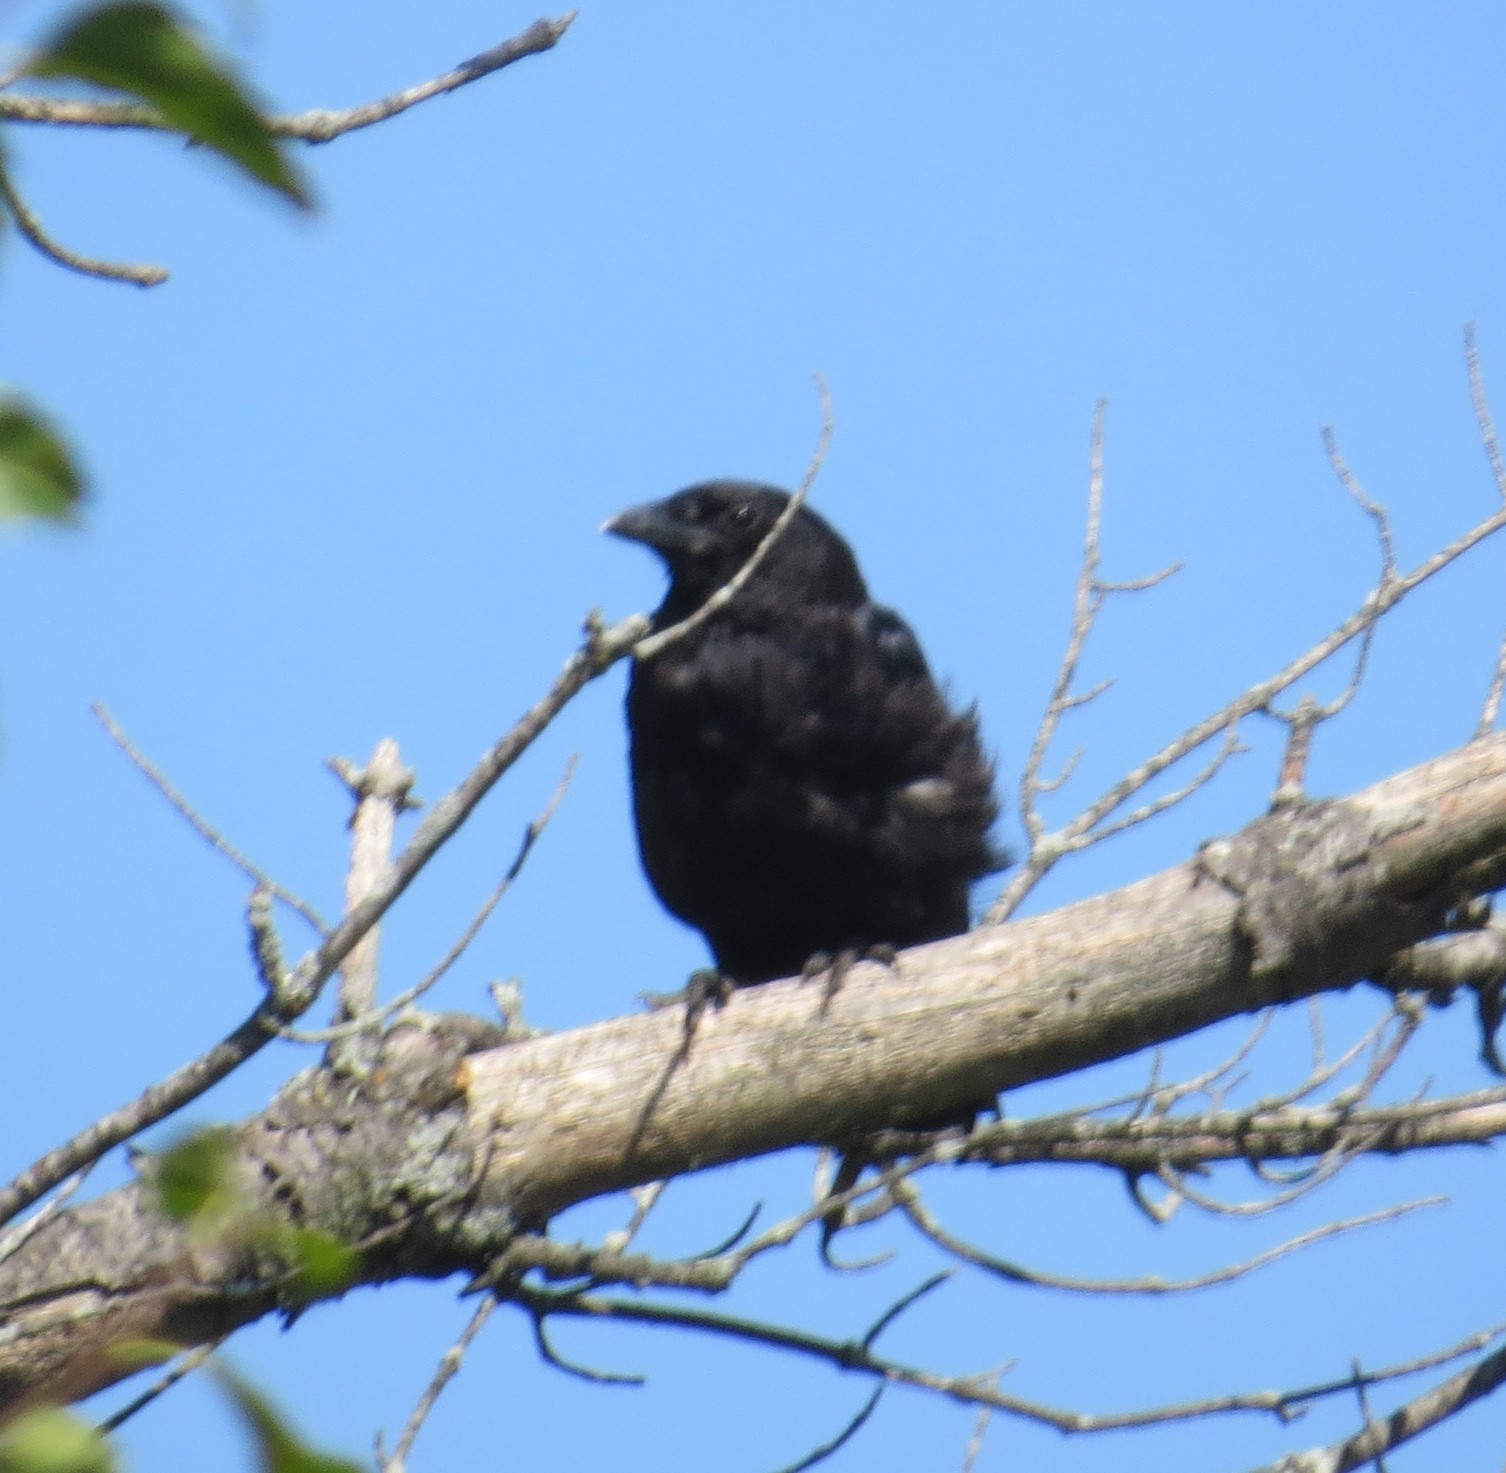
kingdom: Animalia
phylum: Chordata
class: Aves
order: Passeriformes
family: Corvidae
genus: Corvus
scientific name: Corvus brachyrhynchos
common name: American crow
